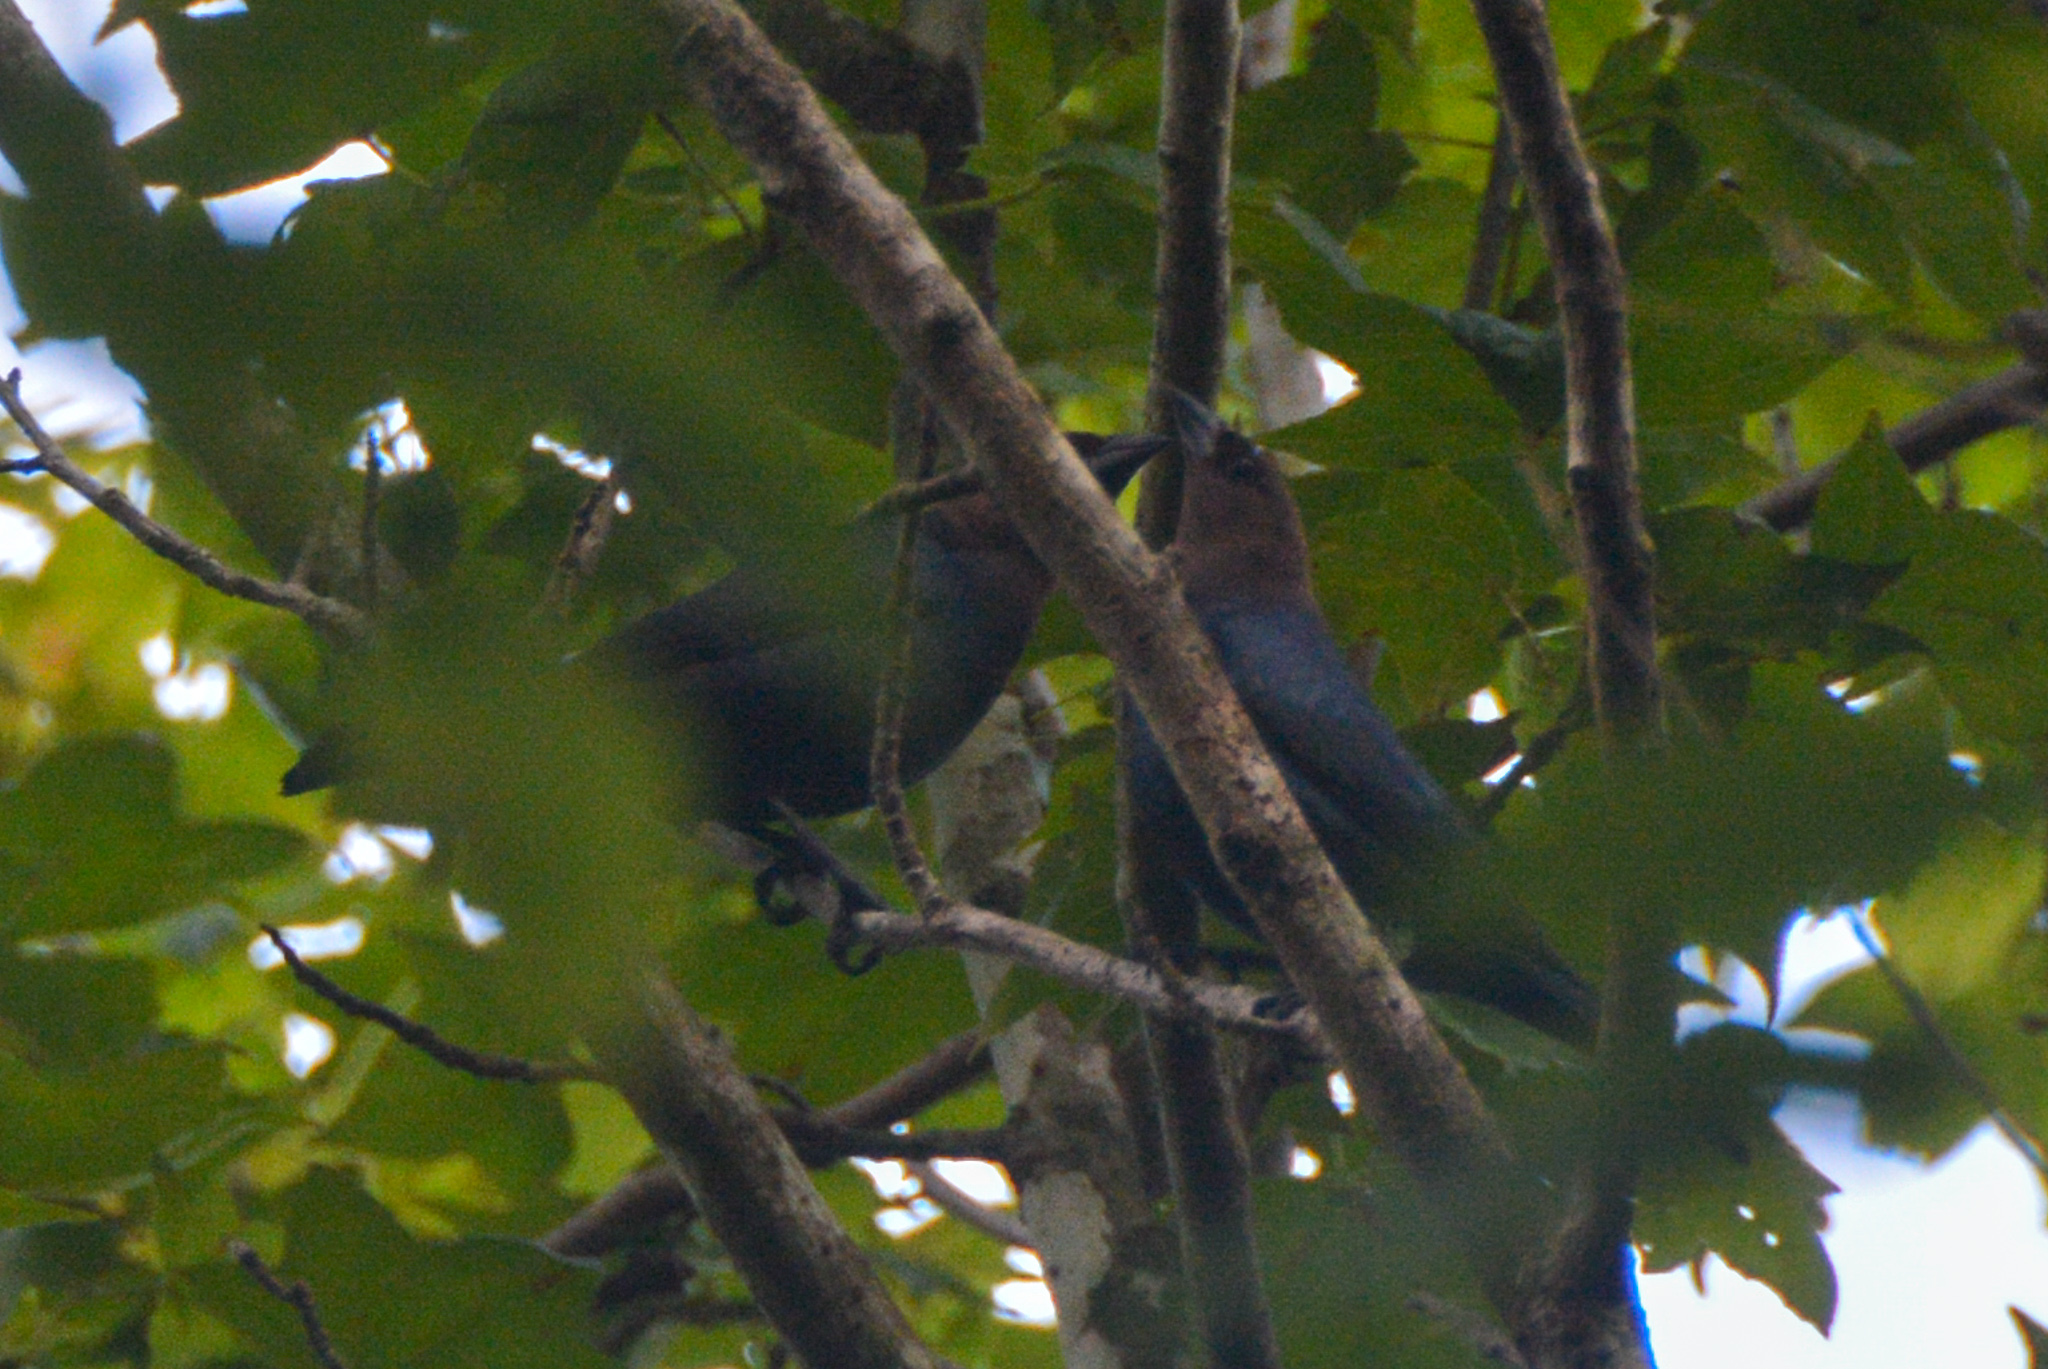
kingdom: Animalia
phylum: Chordata
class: Aves
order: Passeriformes
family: Icteridae
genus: Molothrus
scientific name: Molothrus ater
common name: Brown-headed cowbird
